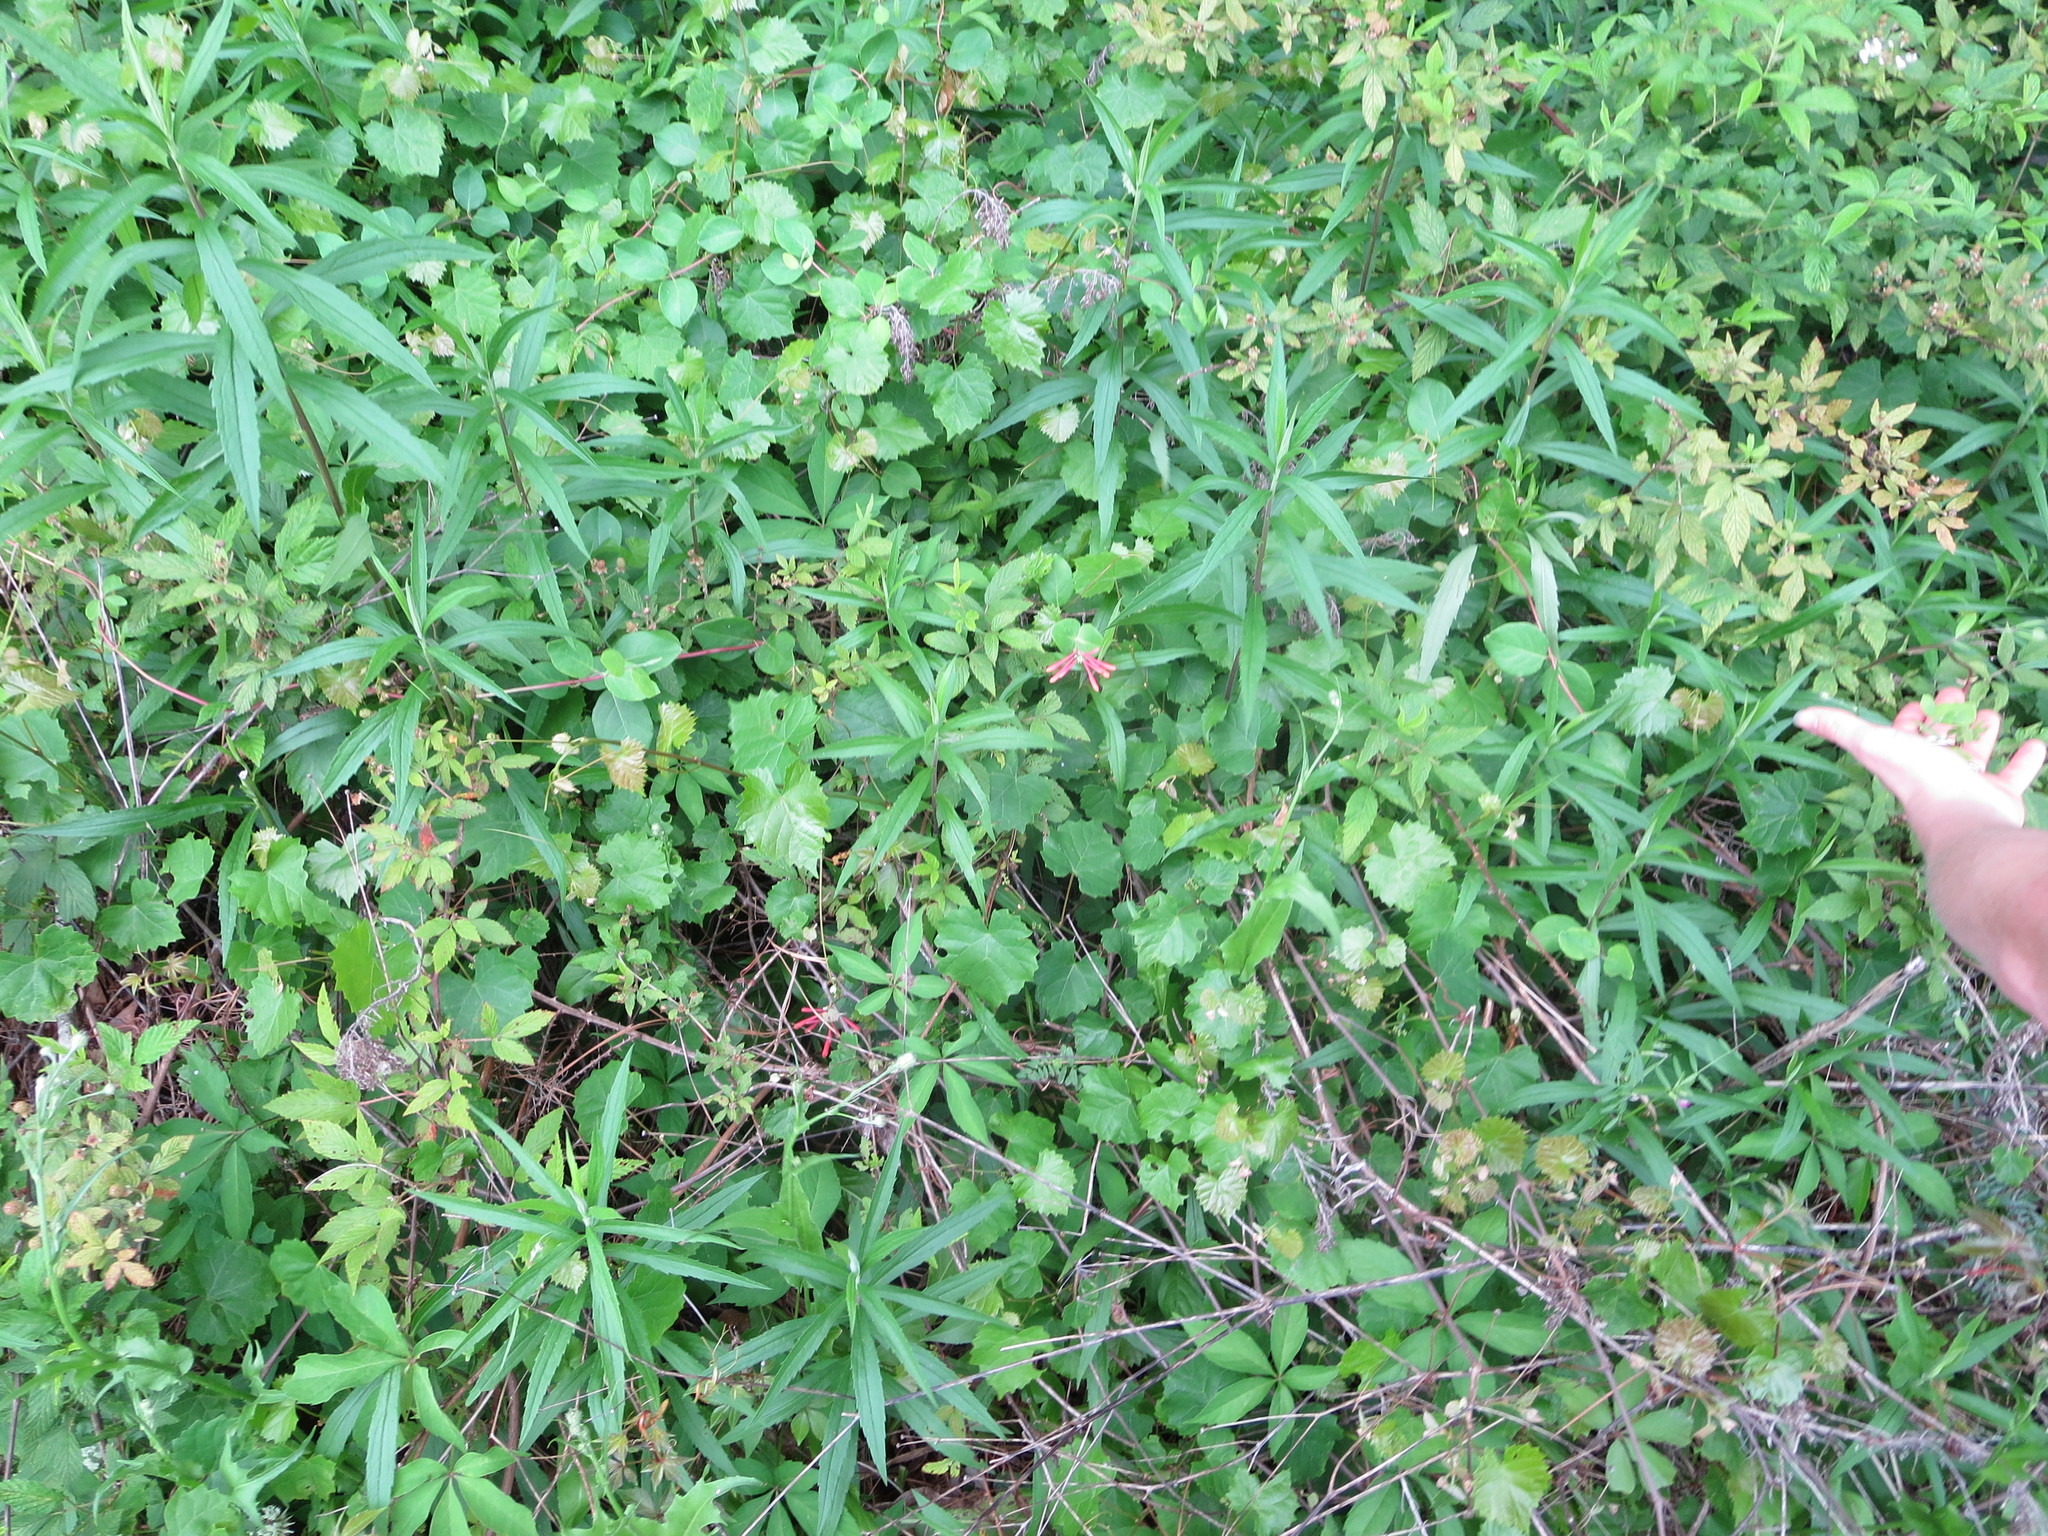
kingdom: Plantae
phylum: Tracheophyta
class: Magnoliopsida
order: Dipsacales
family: Caprifoliaceae
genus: Lonicera
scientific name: Lonicera sempervirens
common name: Coral honeysuckle
